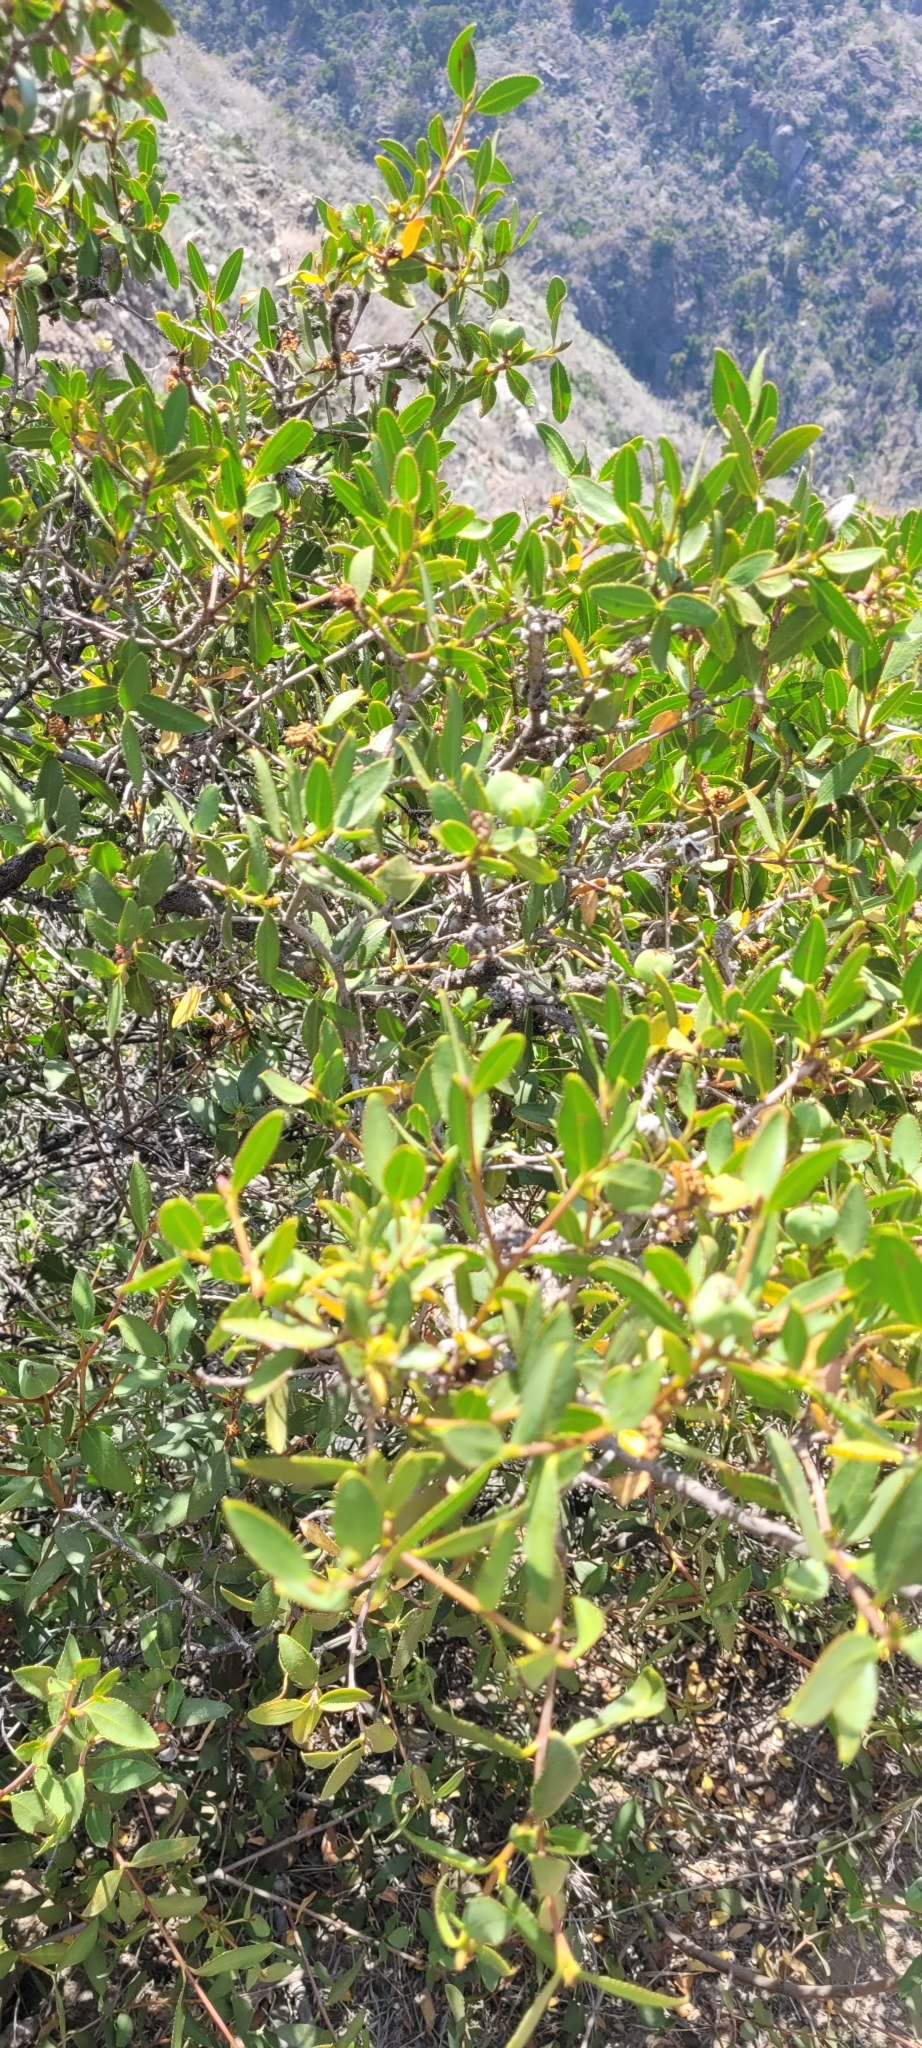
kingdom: Plantae
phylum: Tracheophyta
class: Magnoliopsida
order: Malpighiales
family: Euphorbiaceae
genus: Colliguaja
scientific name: Colliguaja odorifera
